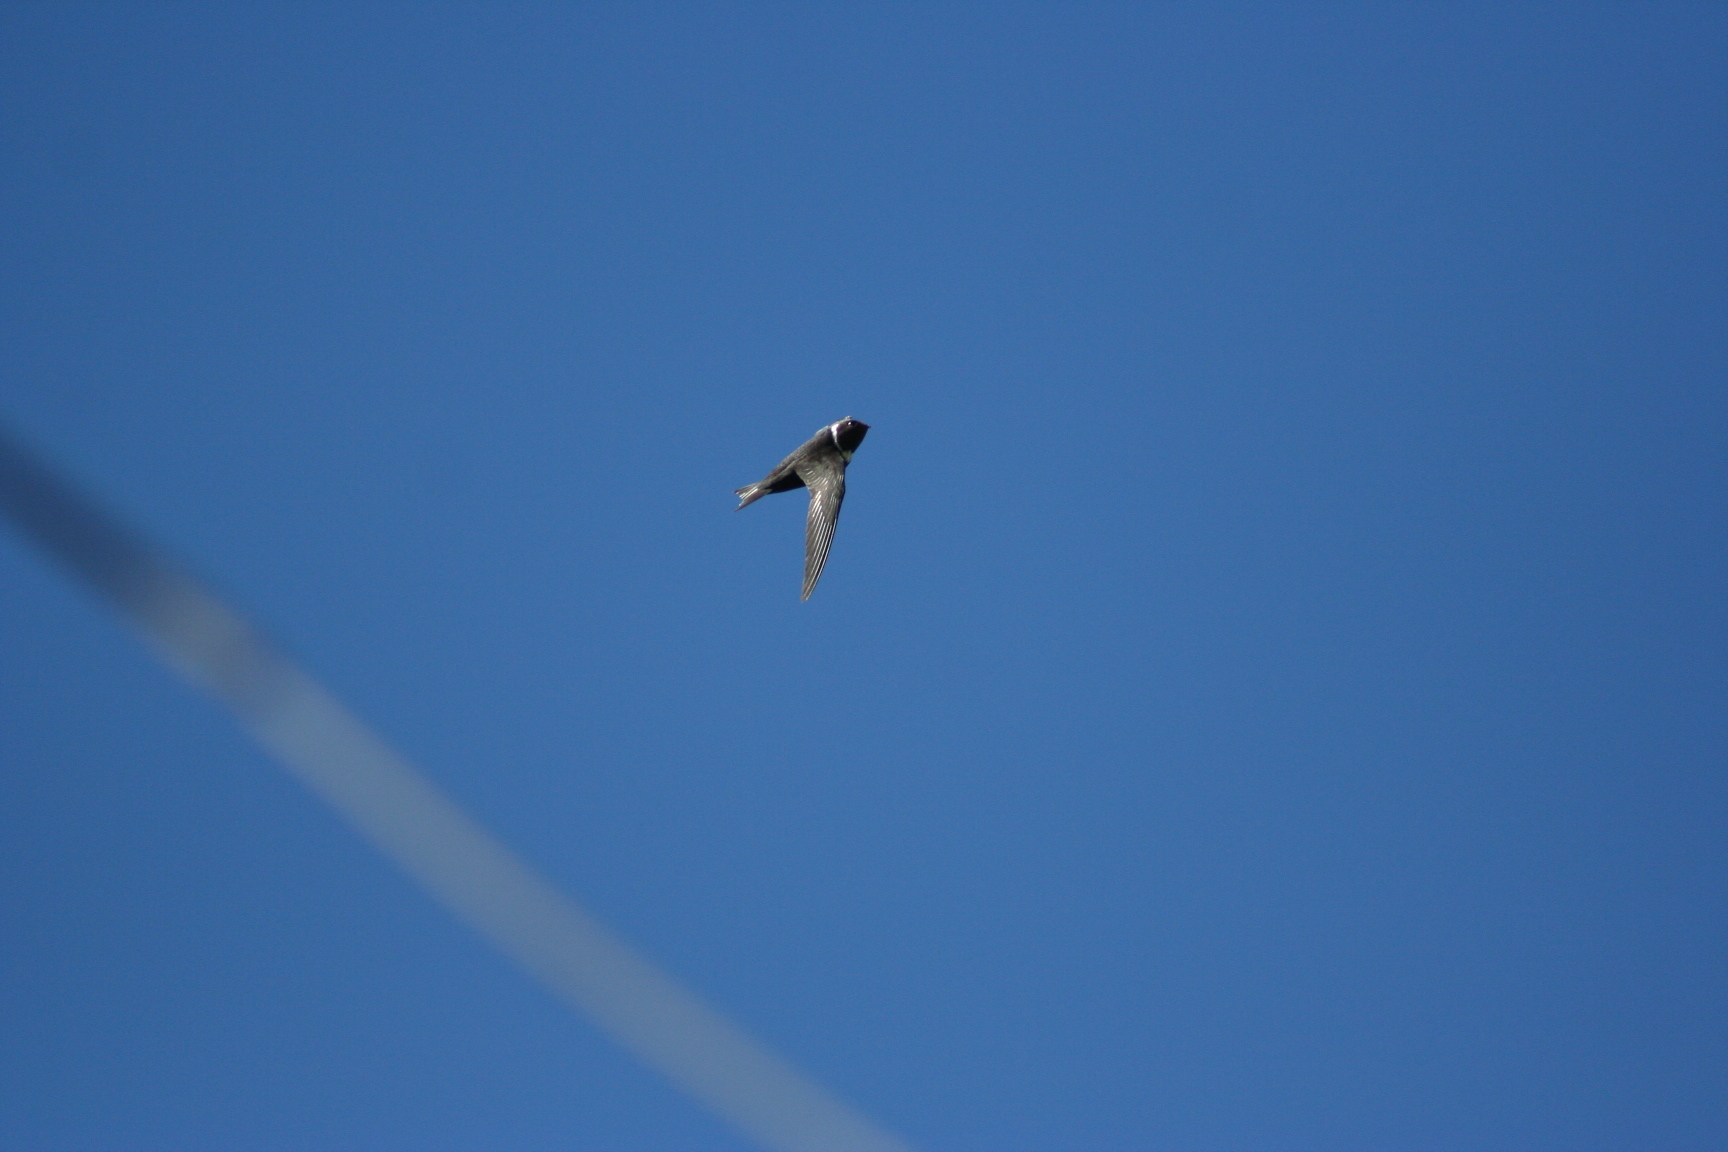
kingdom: Animalia
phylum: Chordata
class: Aves
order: Apodiformes
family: Apodidae
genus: Streptoprocne
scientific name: Streptoprocne zonaris
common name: White-collared swift
